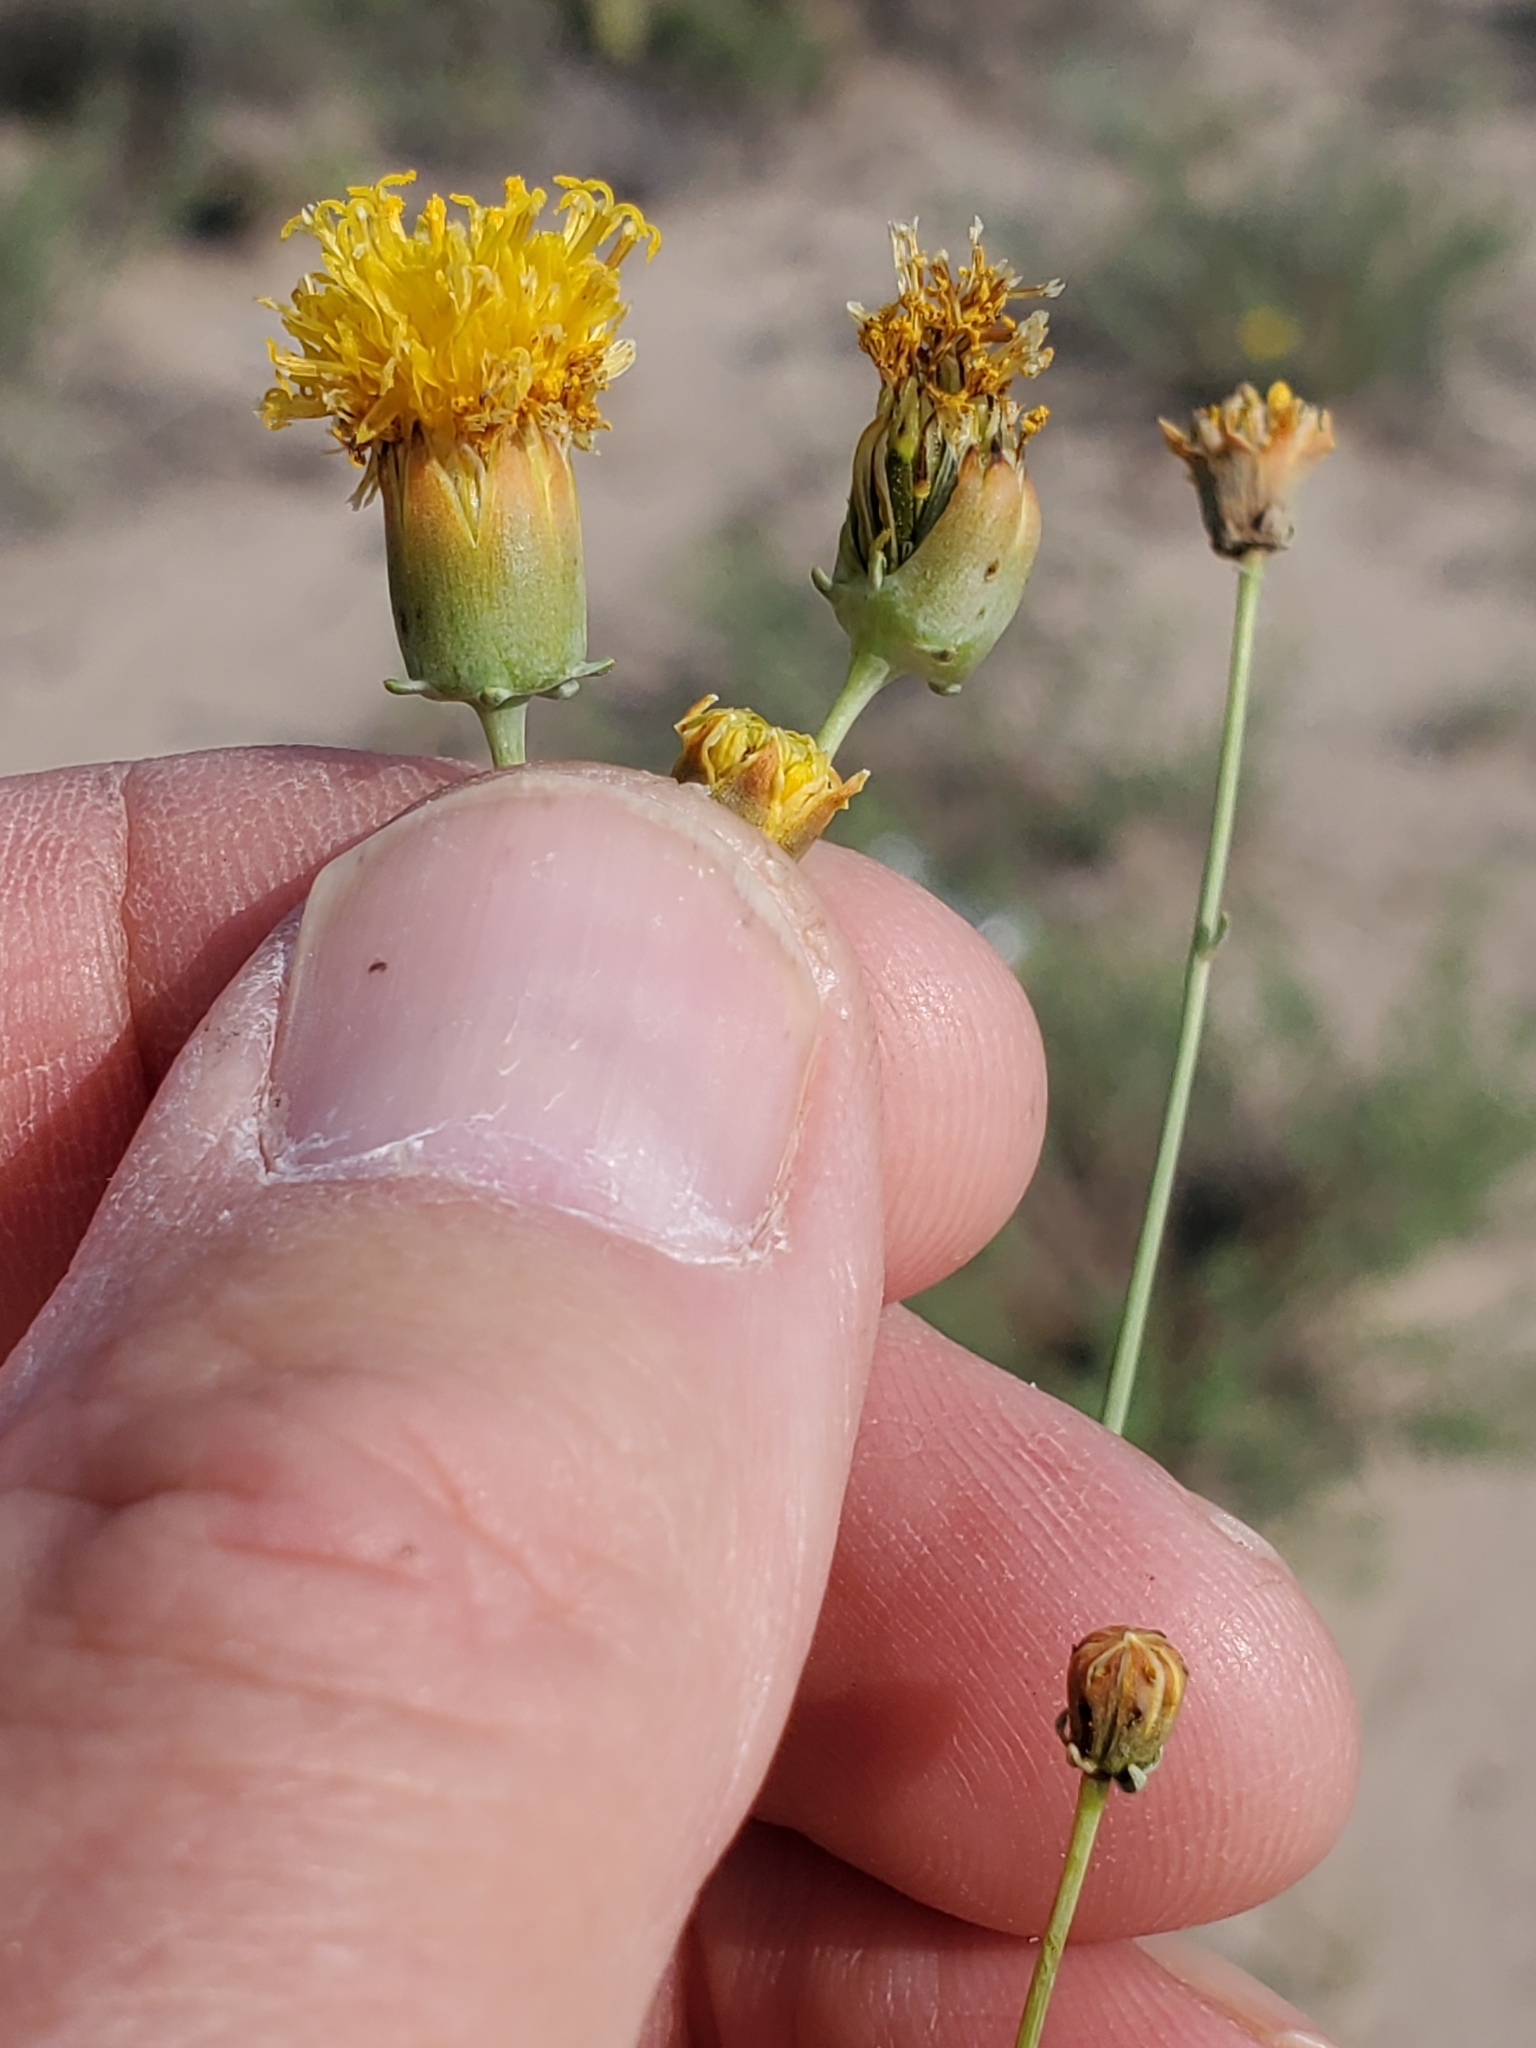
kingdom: Plantae
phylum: Tracheophyta
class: Magnoliopsida
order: Asterales
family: Asteraceae
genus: Thelesperma
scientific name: Thelesperma megapotamicum
